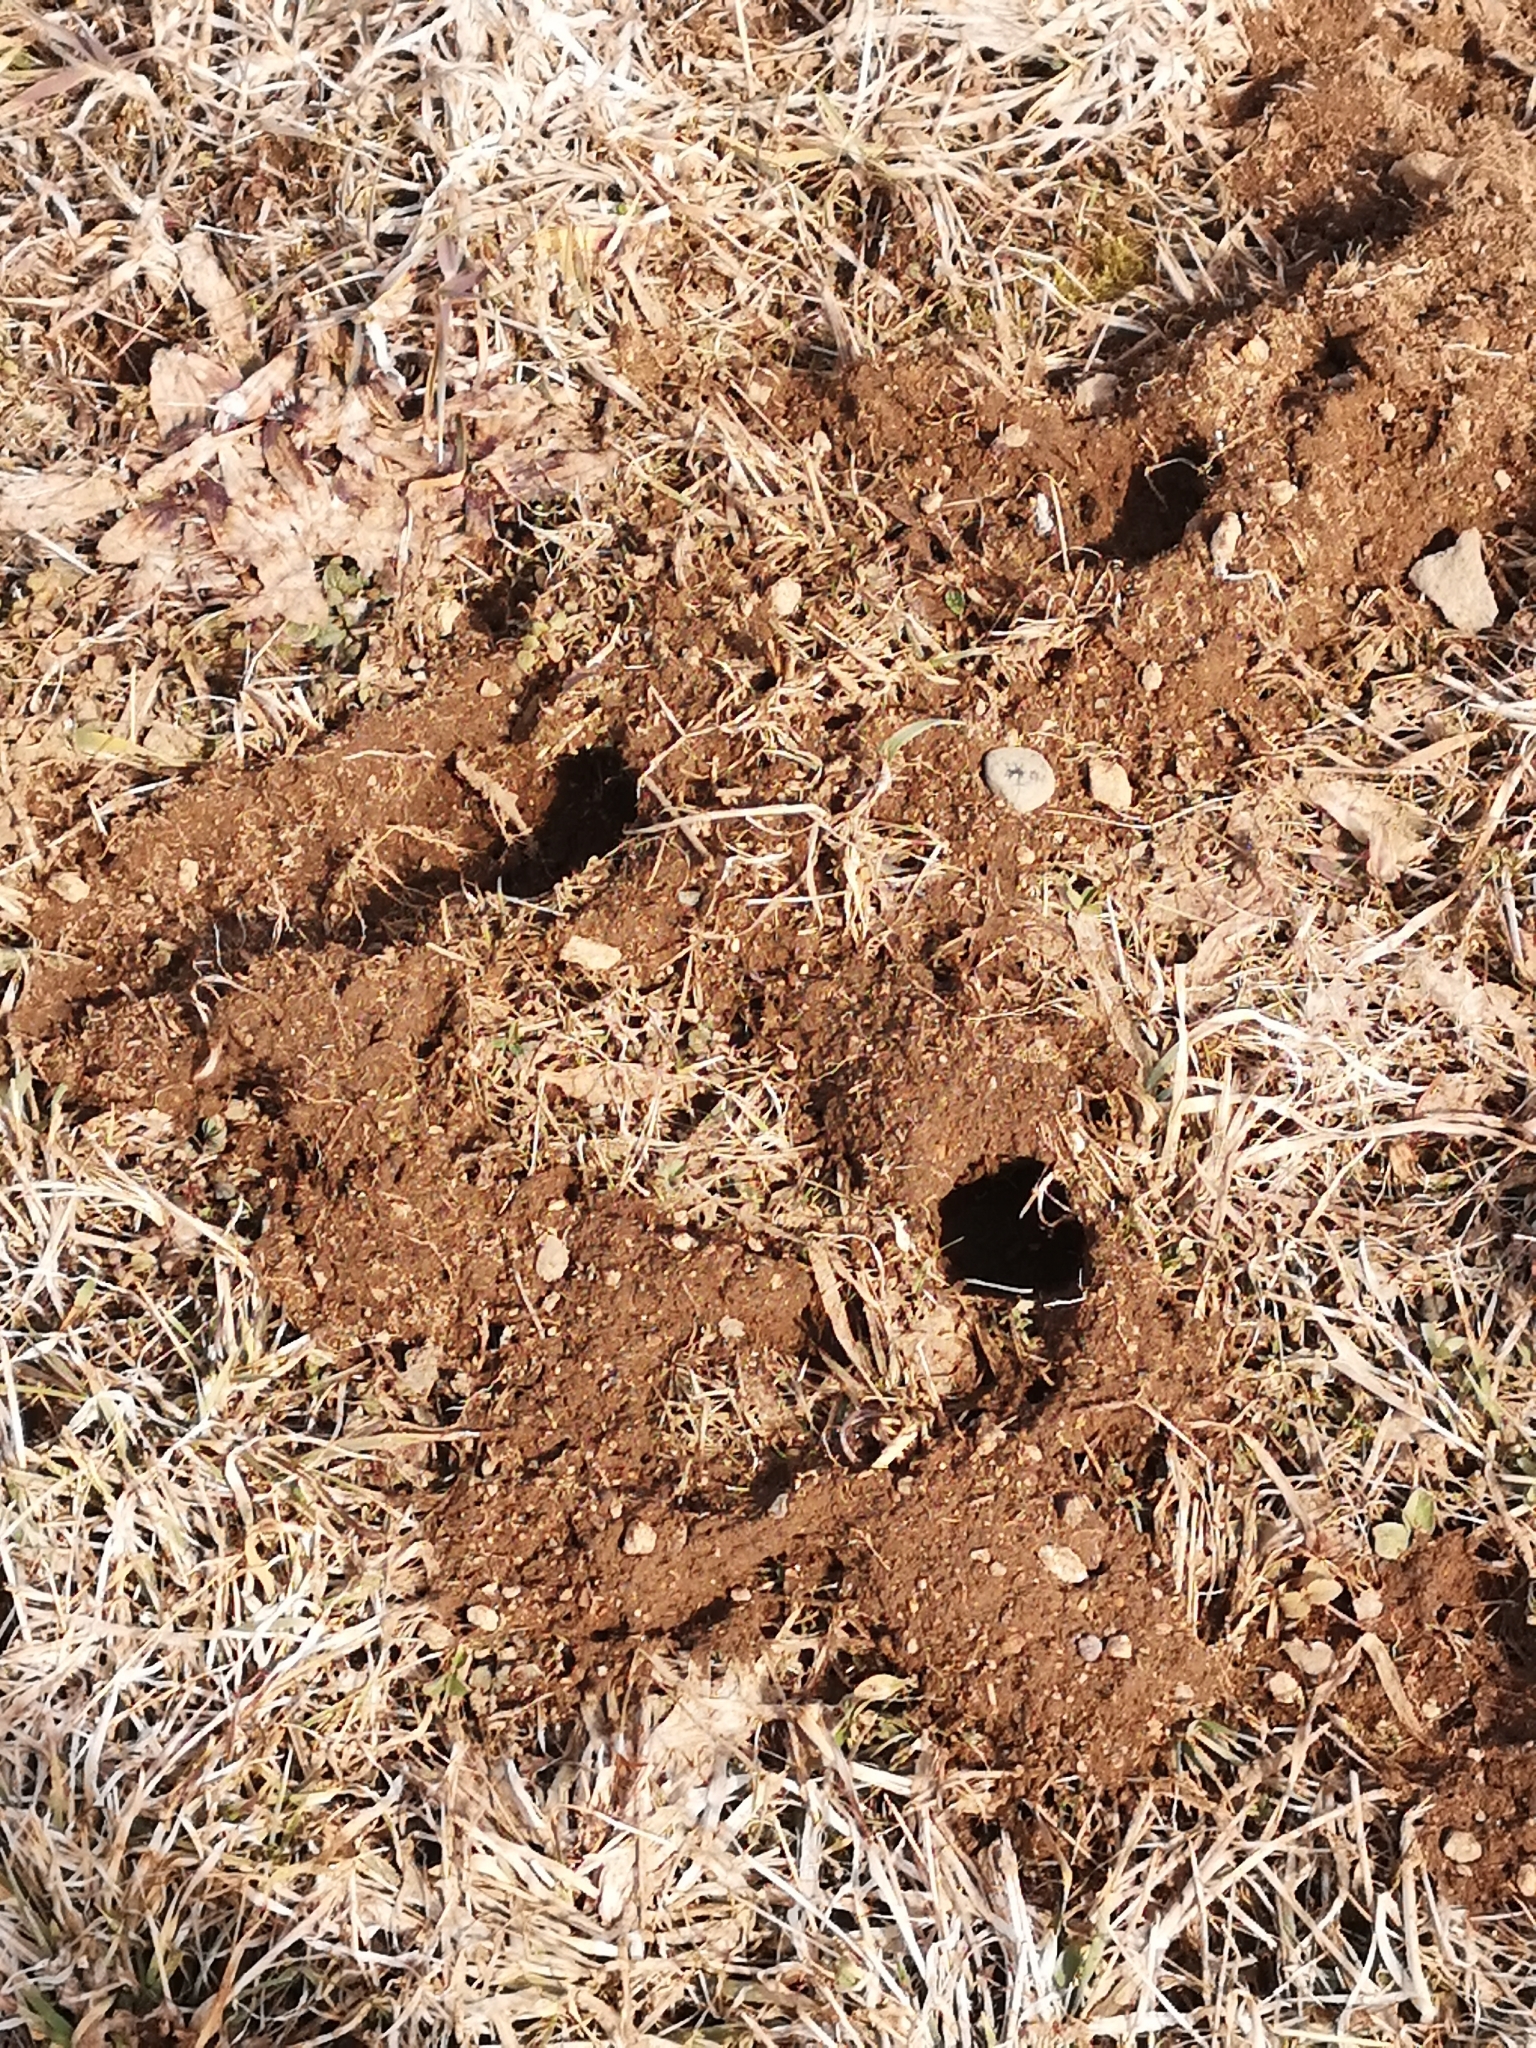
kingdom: Animalia
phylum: Chordata
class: Mammalia
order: Soricomorpha
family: Talpidae
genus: Talpa
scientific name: Talpa europaea
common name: European mole
